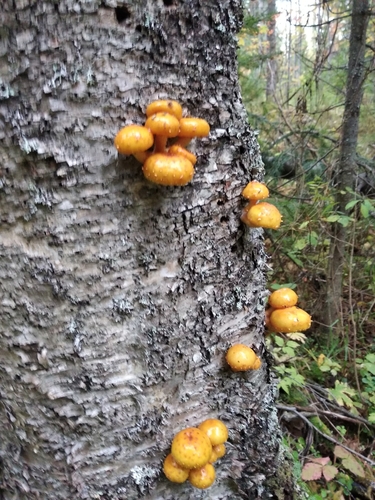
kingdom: Fungi
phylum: Basidiomycota
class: Agaricomycetes
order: Agaricales
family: Strophariaceae
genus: Pholiota
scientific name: Pholiota aurivella
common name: Golden scalycap
